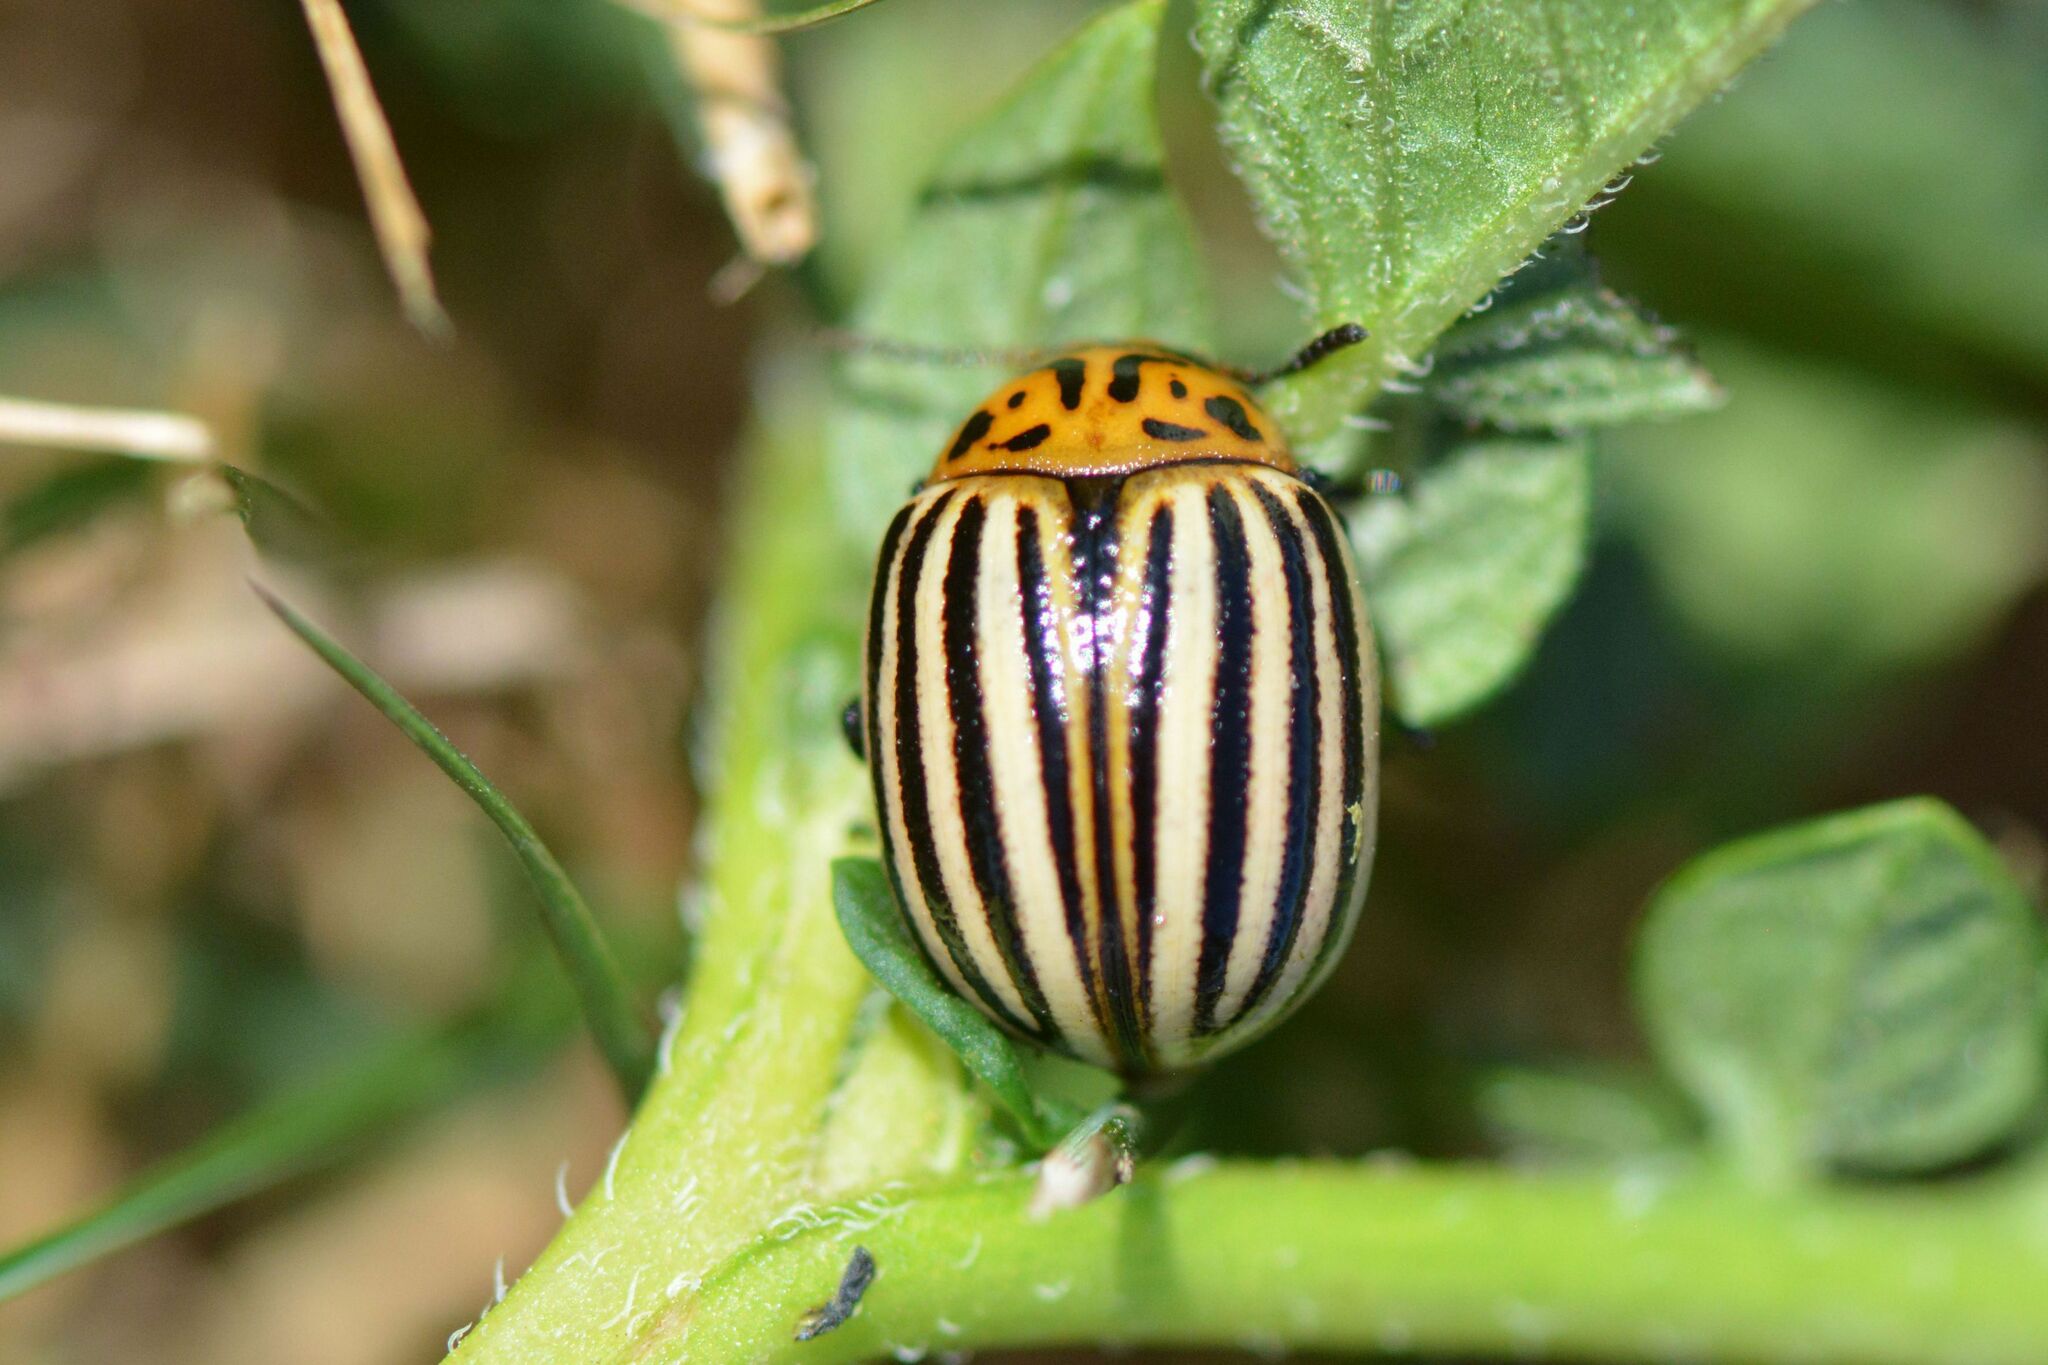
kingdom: Animalia
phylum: Arthropoda
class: Insecta
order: Coleoptera
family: Chrysomelidae
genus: Leptinotarsa
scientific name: Leptinotarsa decemlineata
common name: Colorado potato beetle
